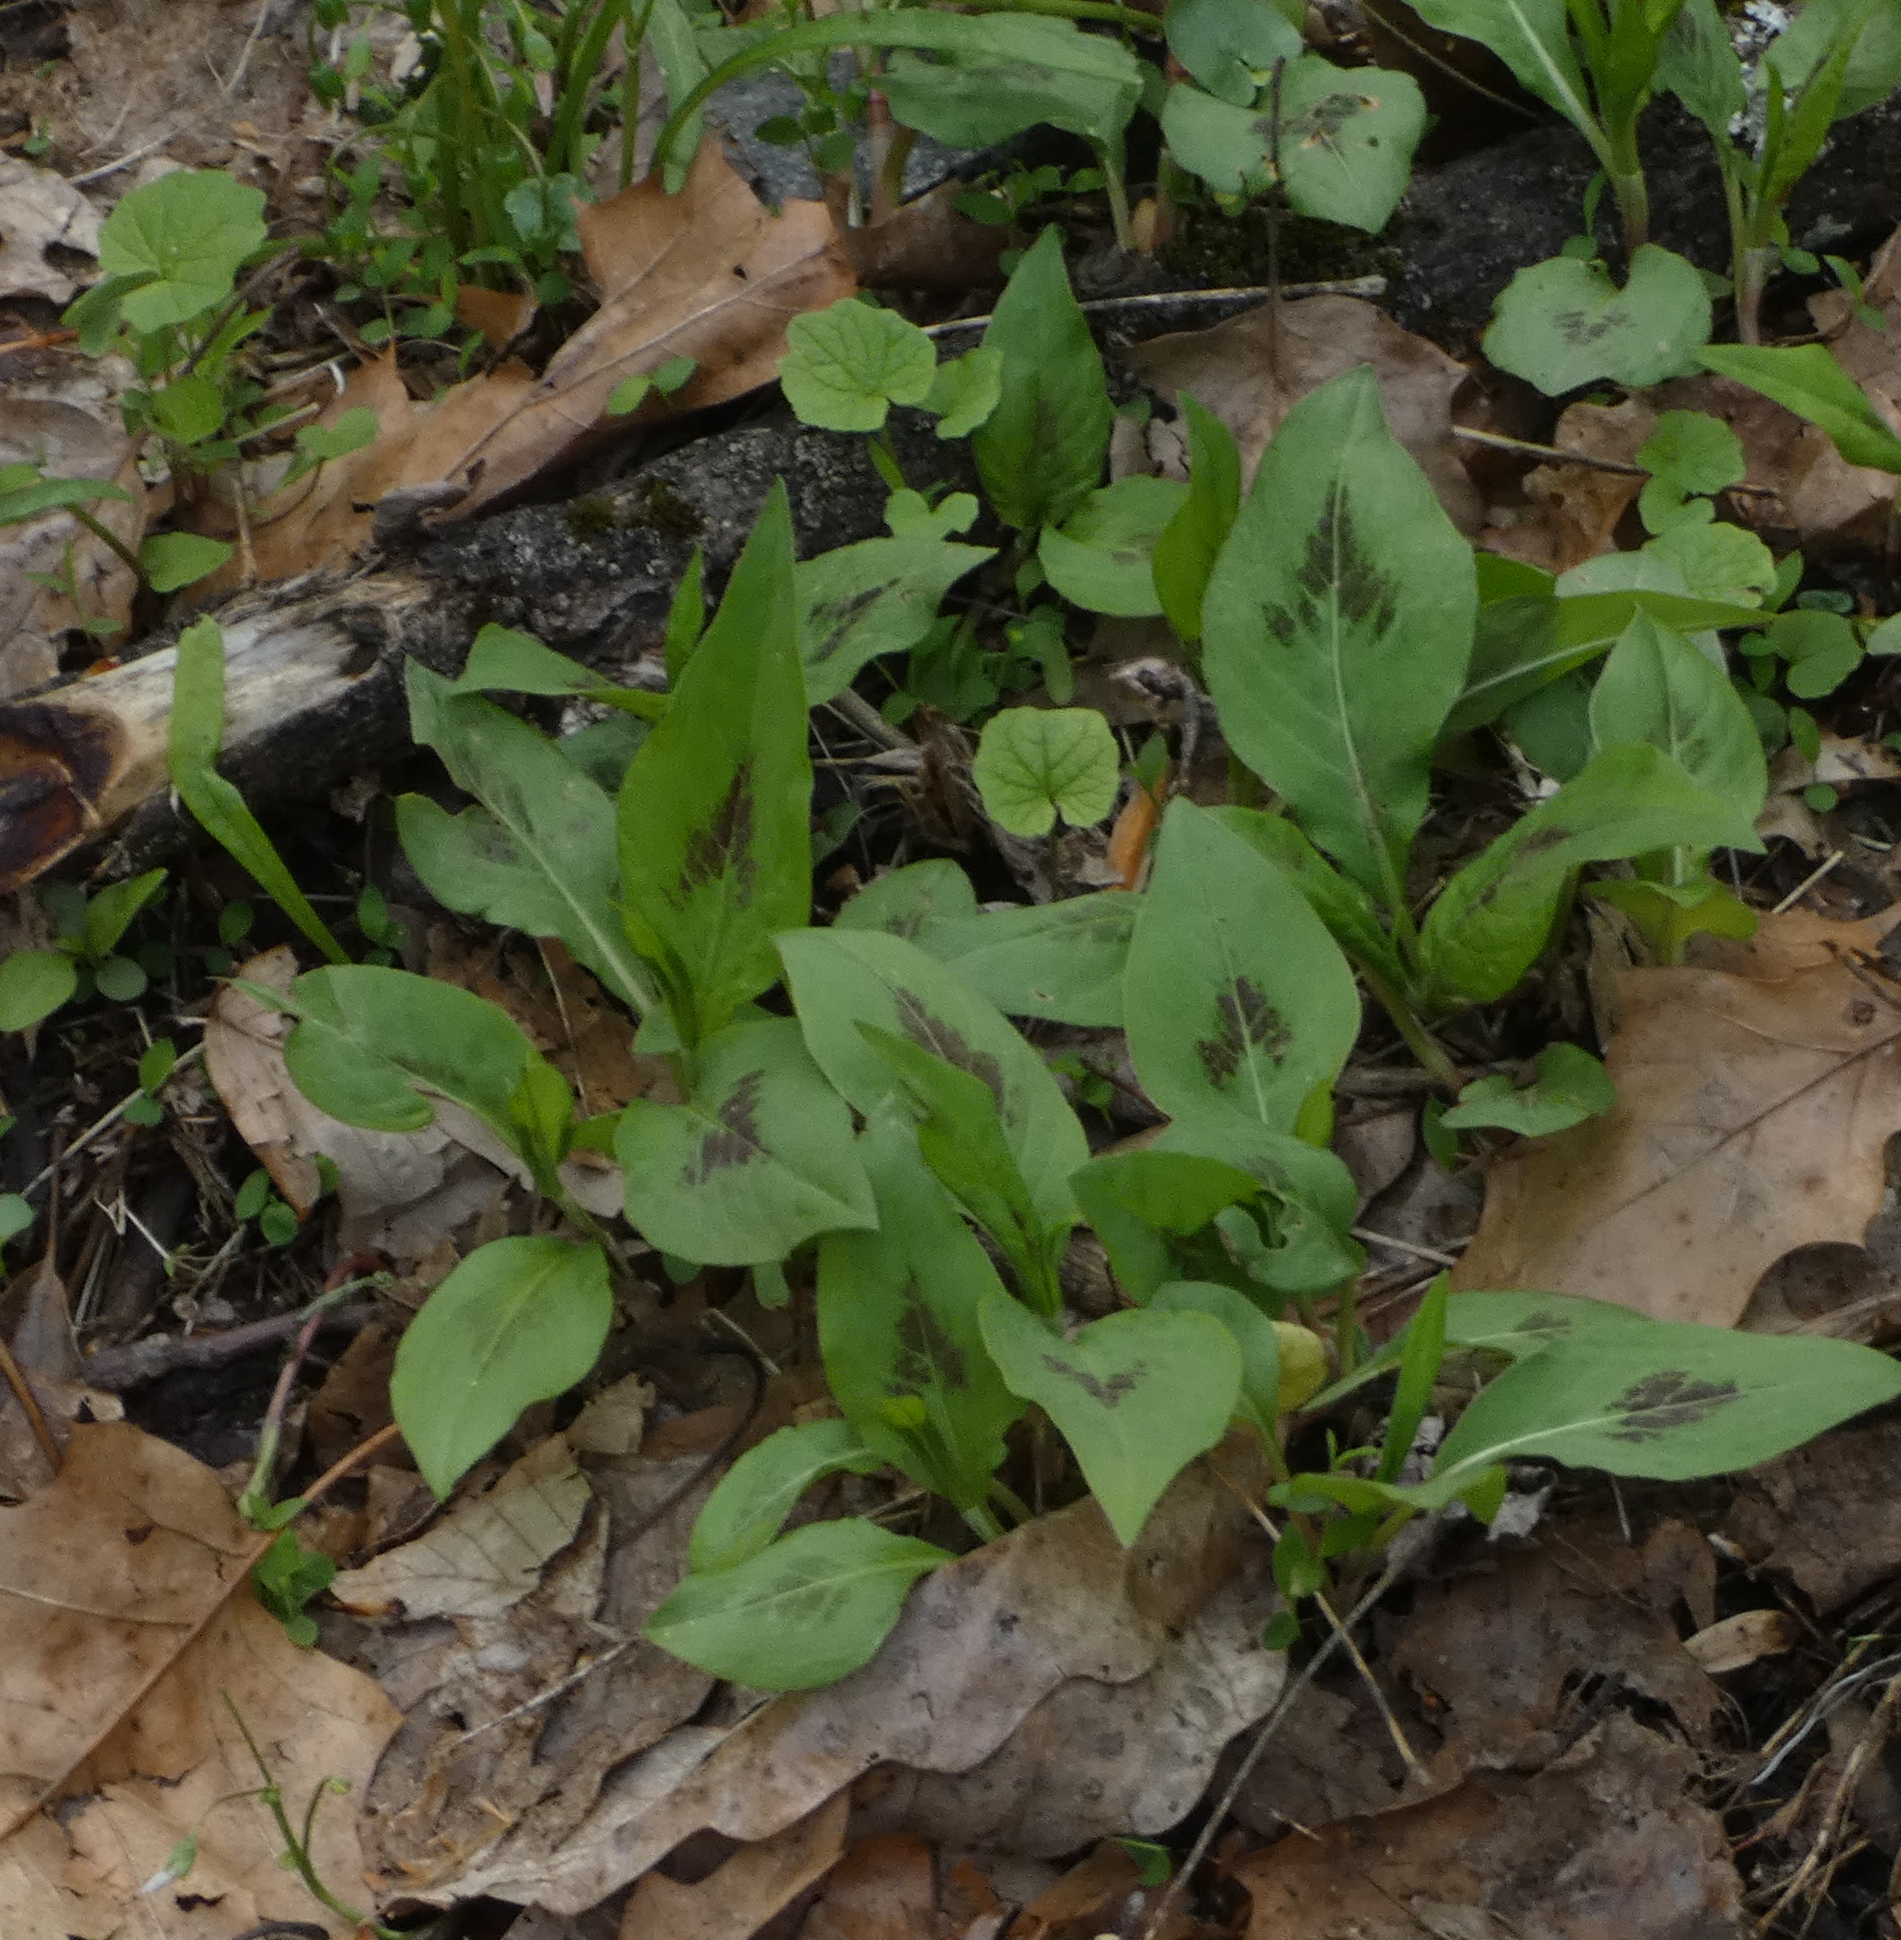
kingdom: Plantae
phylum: Tracheophyta
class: Magnoliopsida
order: Caryophyllales
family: Polygonaceae
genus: Persicaria
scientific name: Persicaria virginiana
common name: Jumpseed
